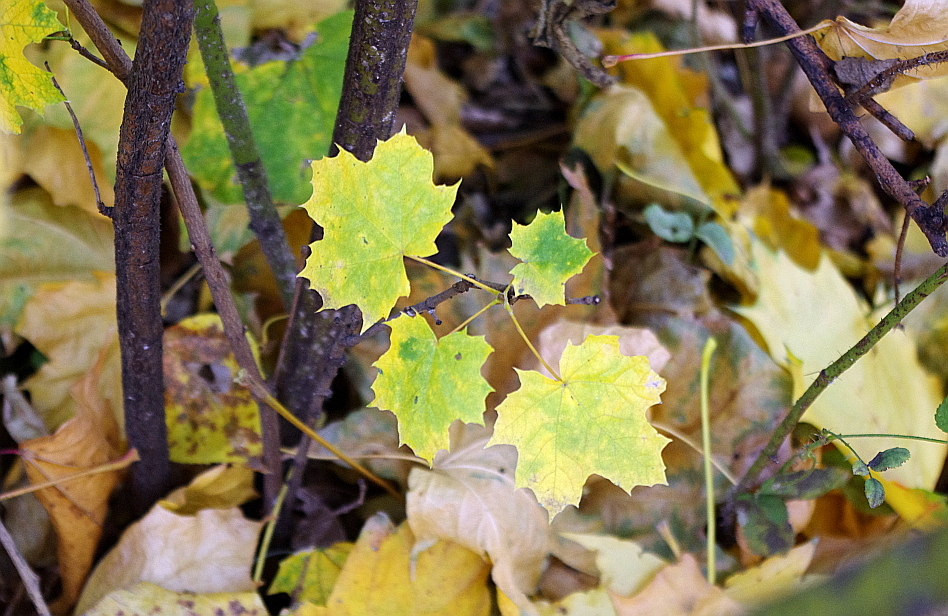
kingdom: Plantae
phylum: Tracheophyta
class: Magnoliopsida
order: Sapindales
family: Sapindaceae
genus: Acer
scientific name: Acer platanoides
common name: Norway maple
